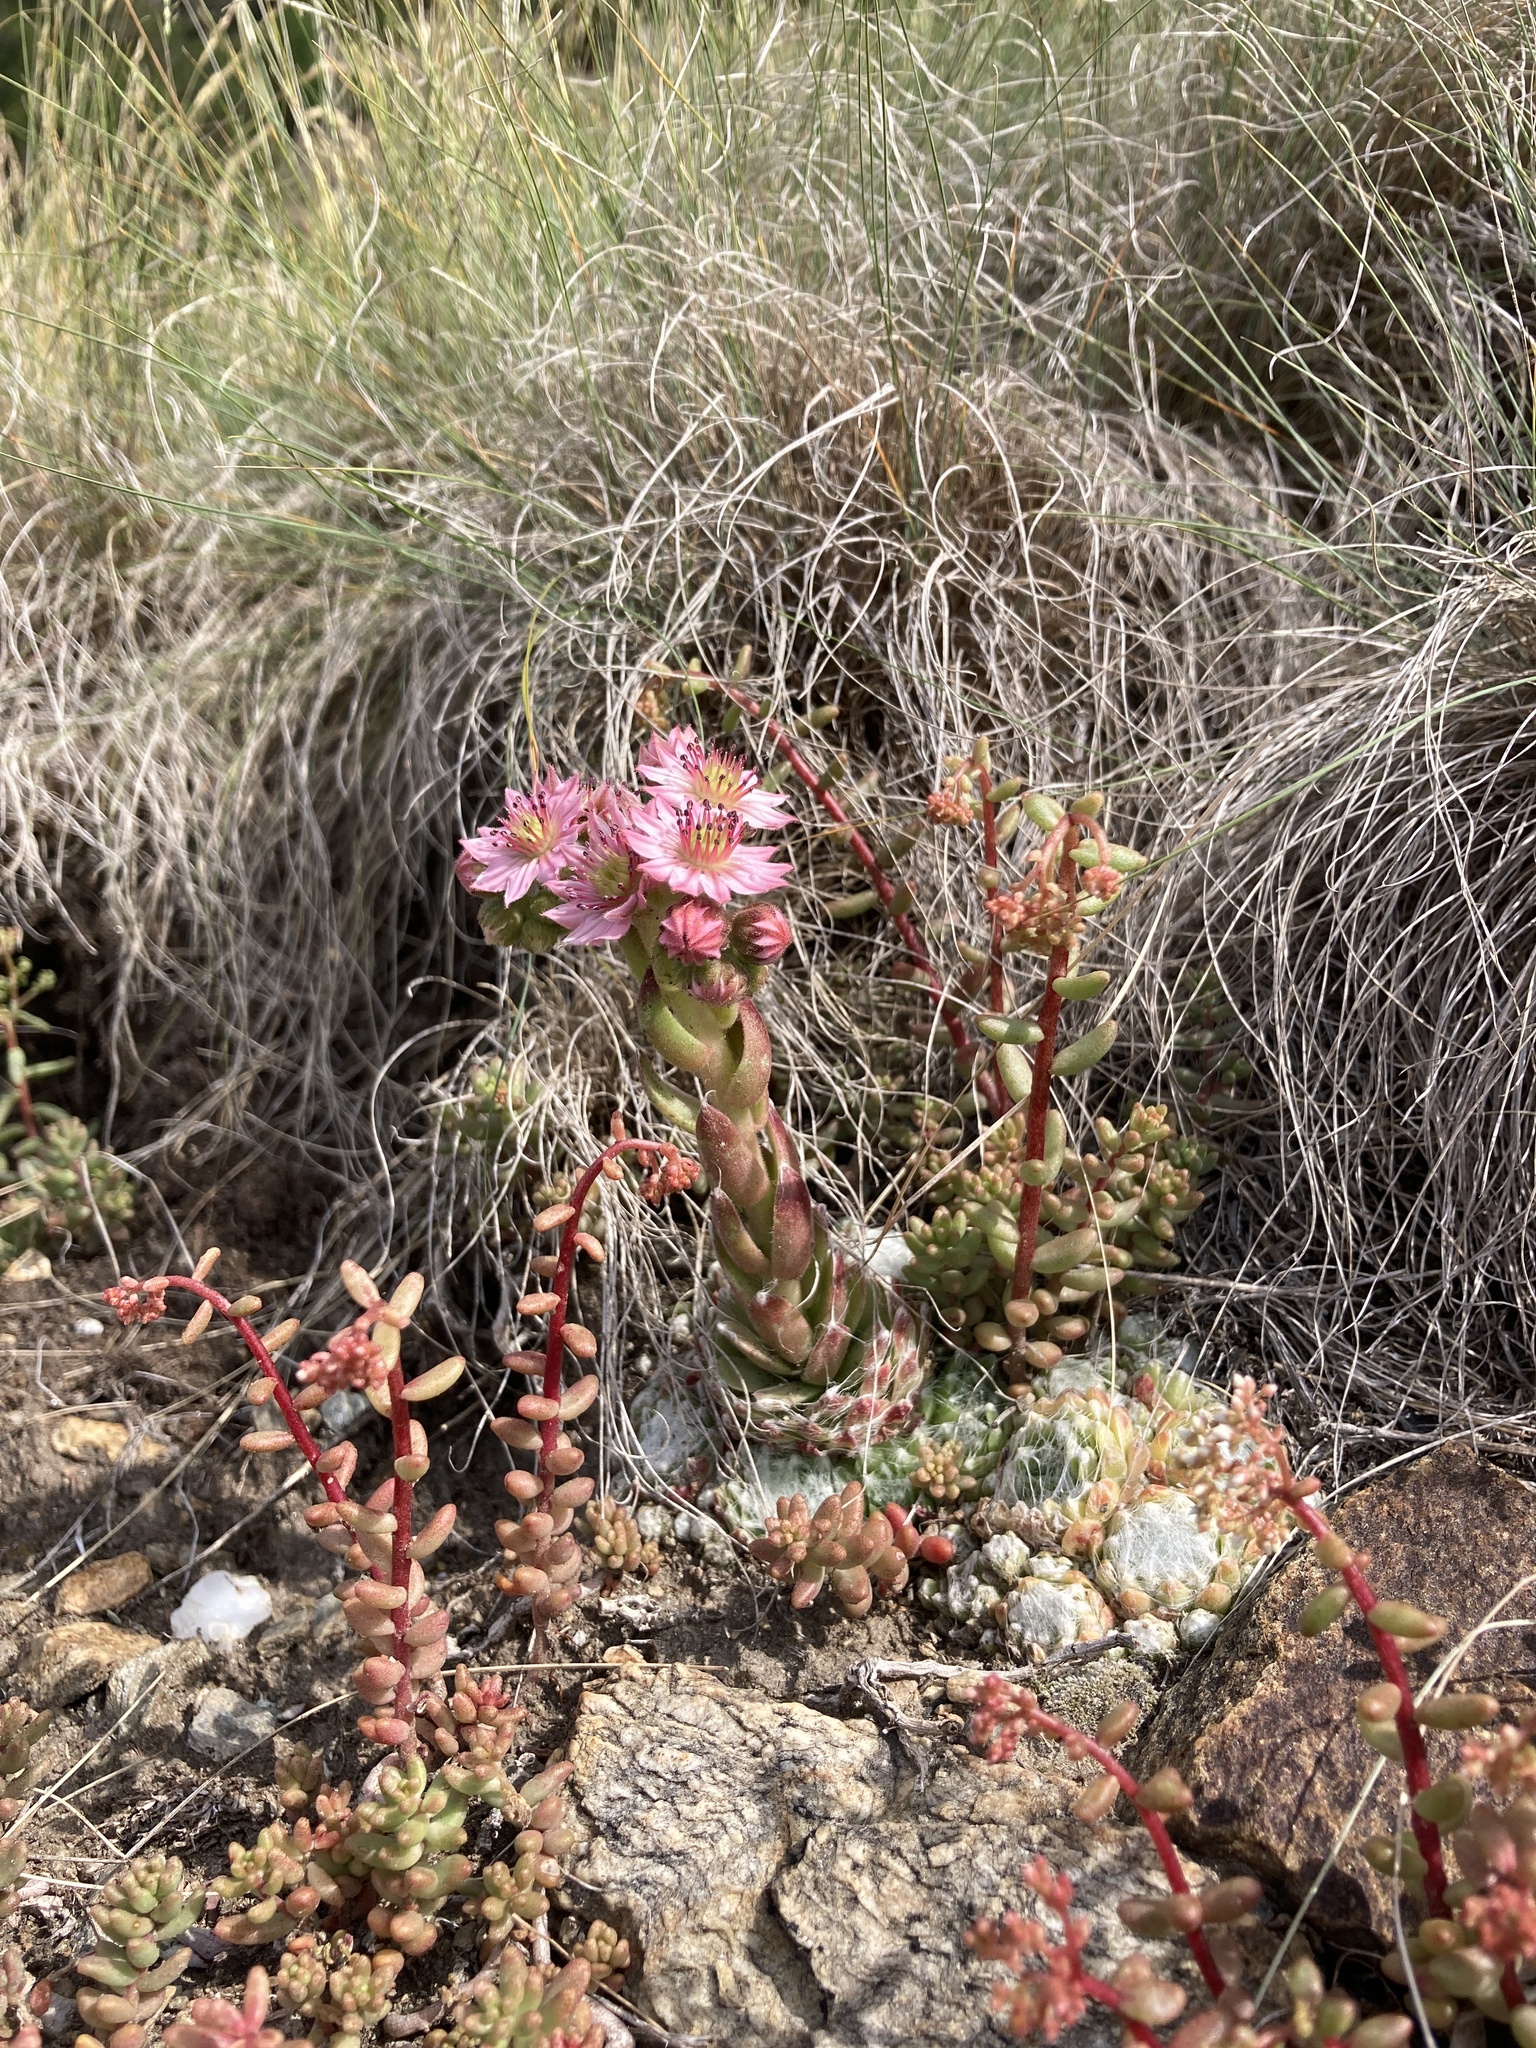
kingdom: Plantae
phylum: Tracheophyta
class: Magnoliopsida
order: Saxifragales
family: Crassulaceae
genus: Sempervivum
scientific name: Sempervivum arachnoideum
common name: Cobweb house-leek
